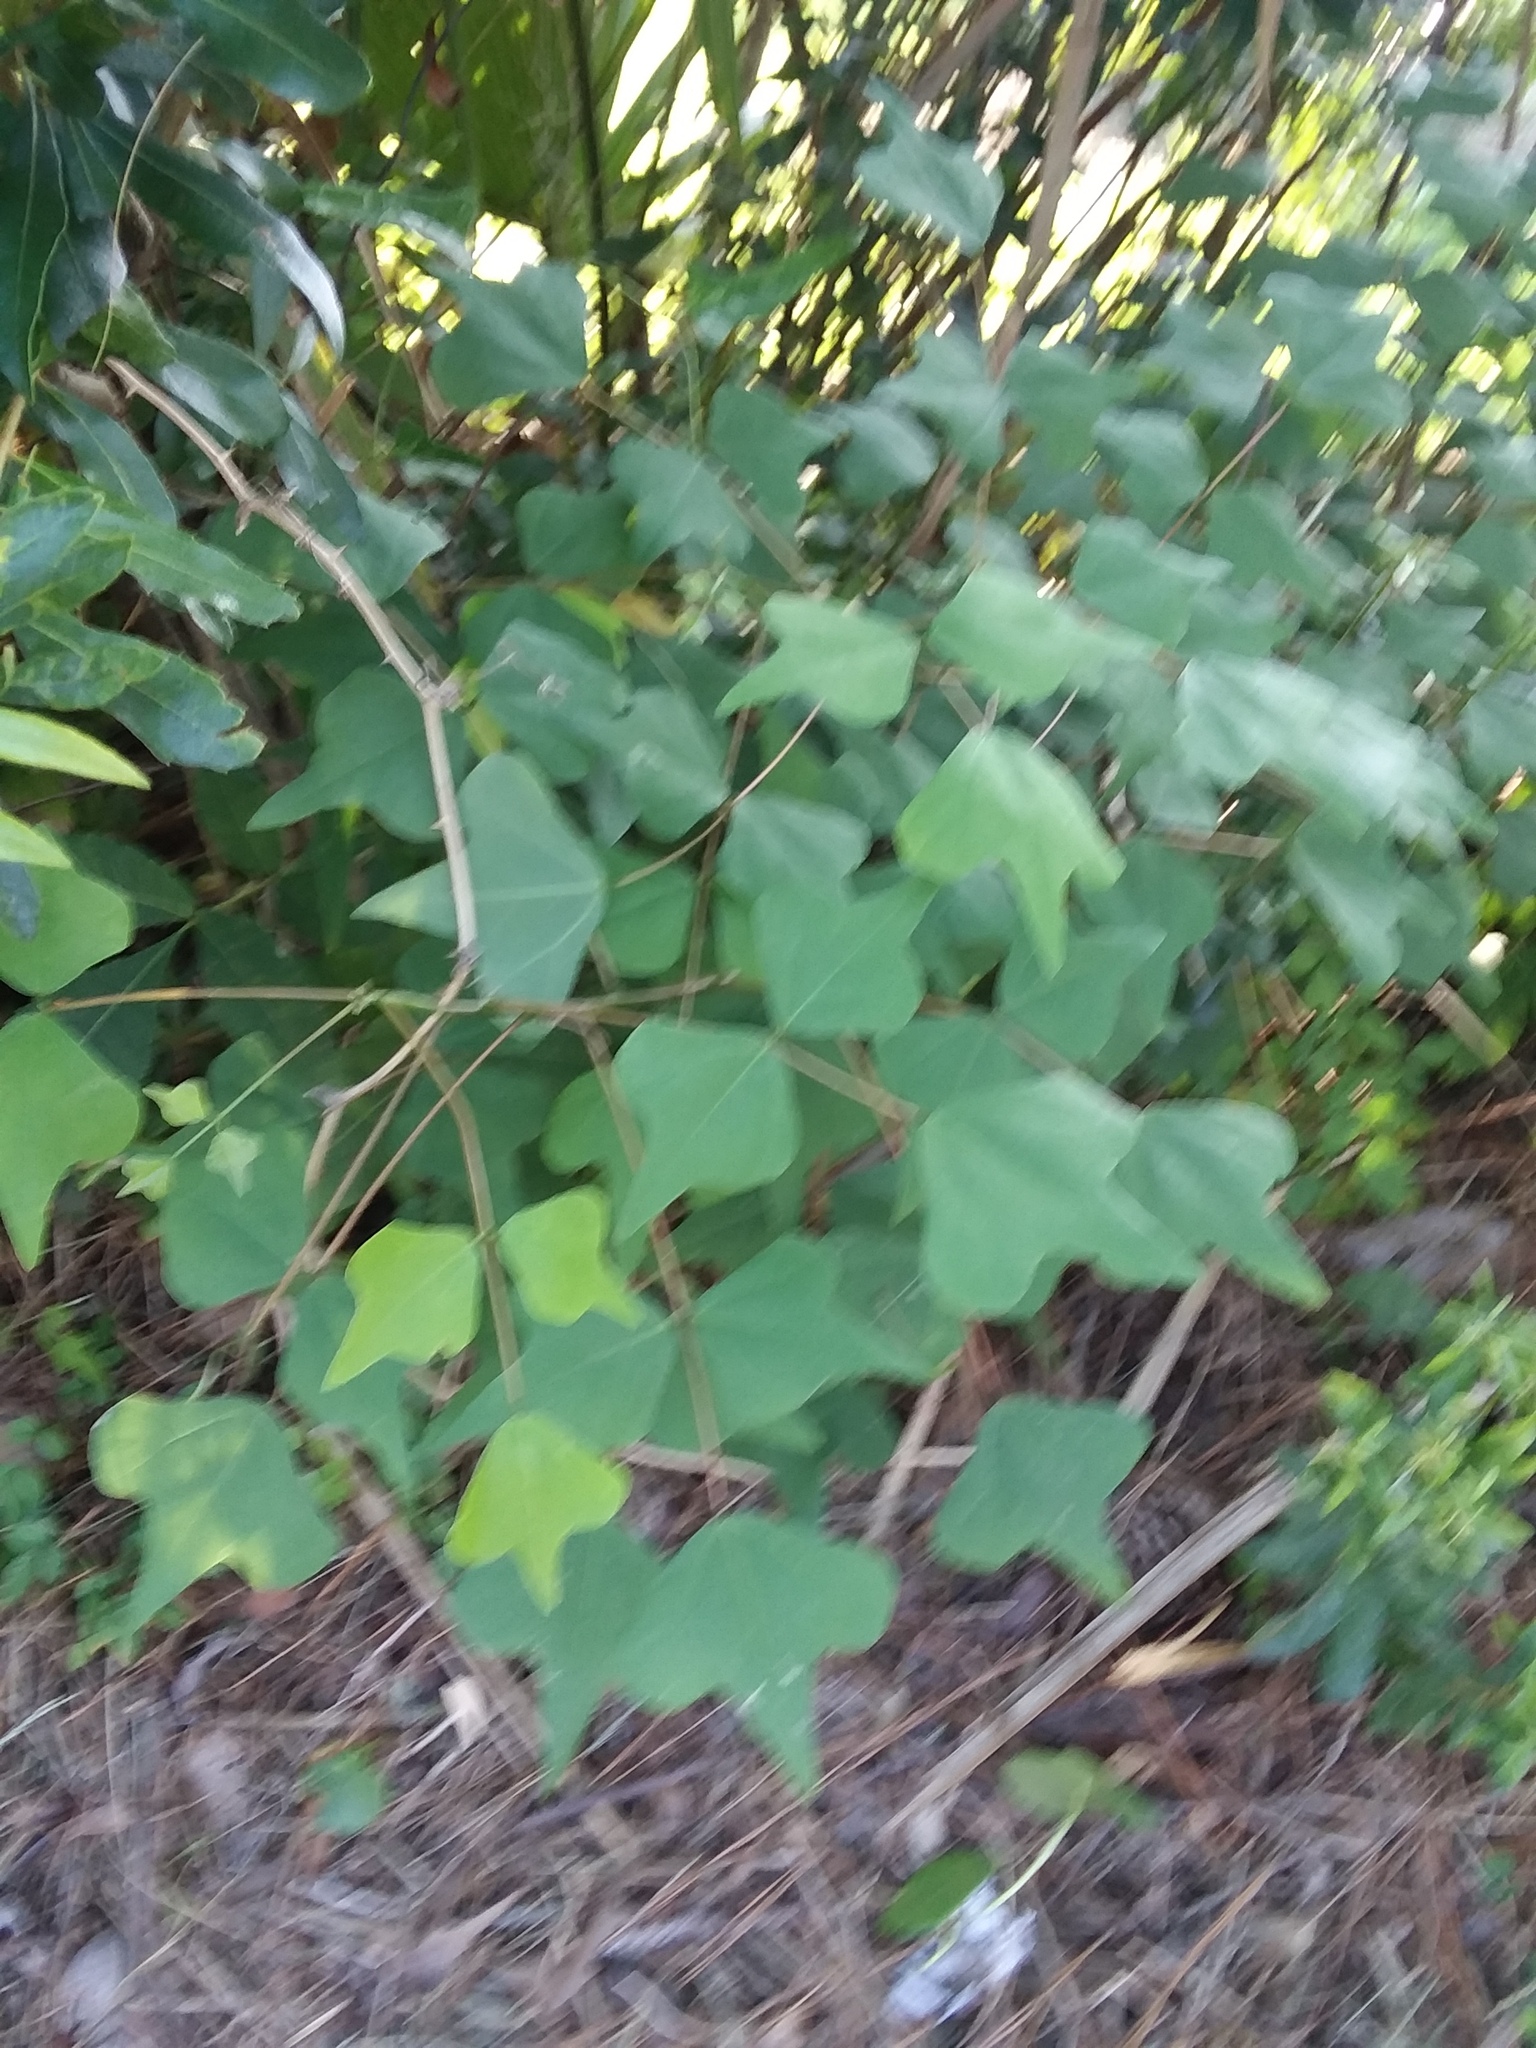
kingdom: Plantae
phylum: Tracheophyta
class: Magnoliopsida
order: Fabales
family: Fabaceae
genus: Erythrina
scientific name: Erythrina herbacea
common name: Coral-bean
